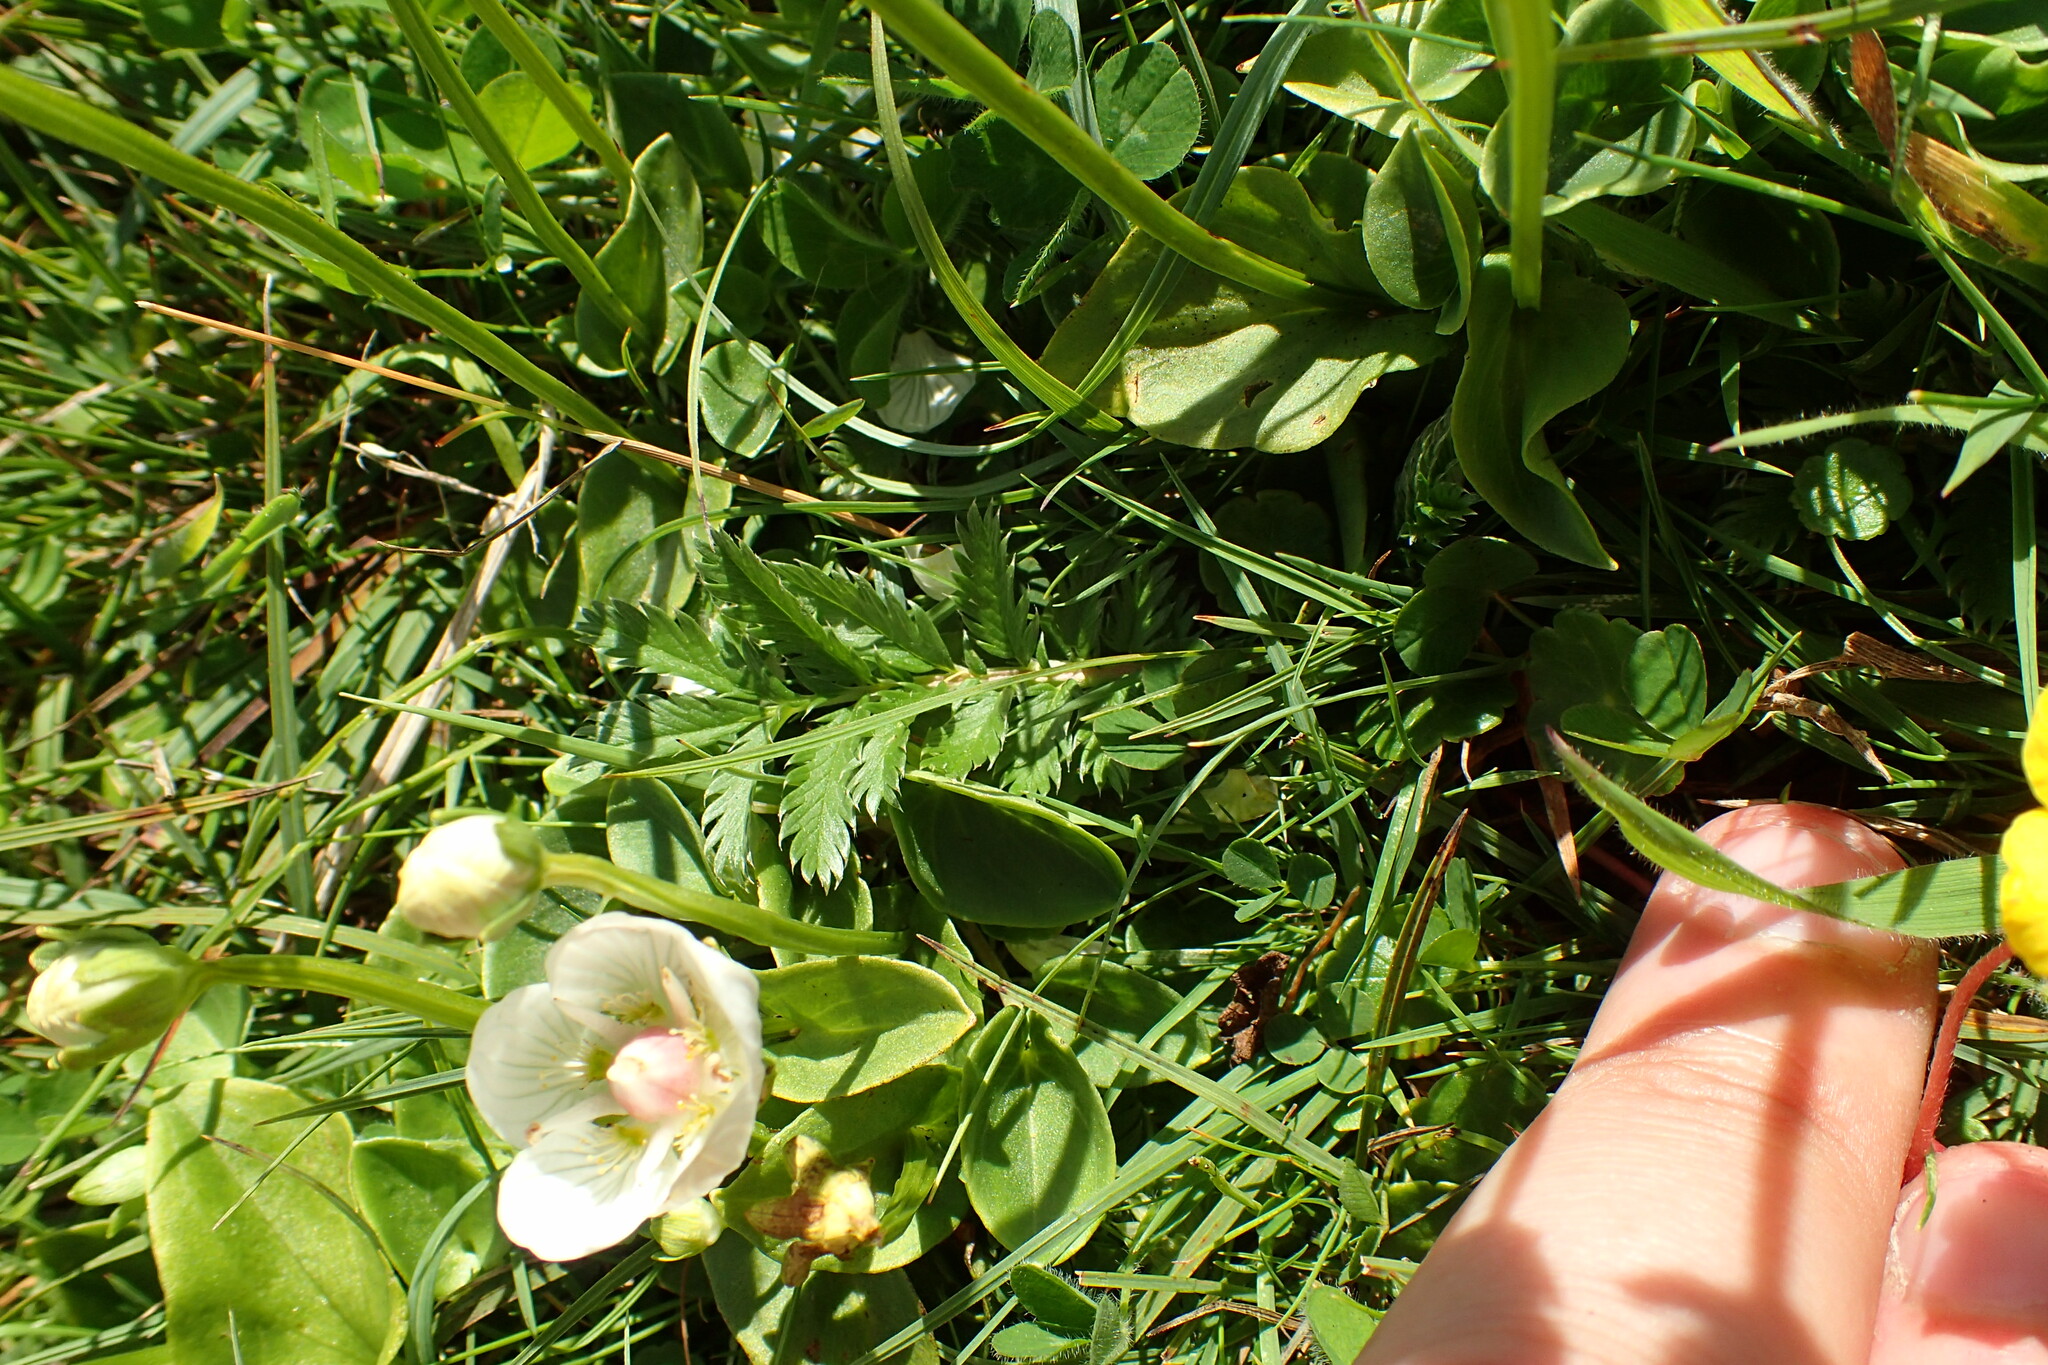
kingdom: Plantae
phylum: Tracheophyta
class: Magnoliopsida
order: Rosales
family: Rosaceae
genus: Argentina
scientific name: Argentina anserina
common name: Common silverweed
